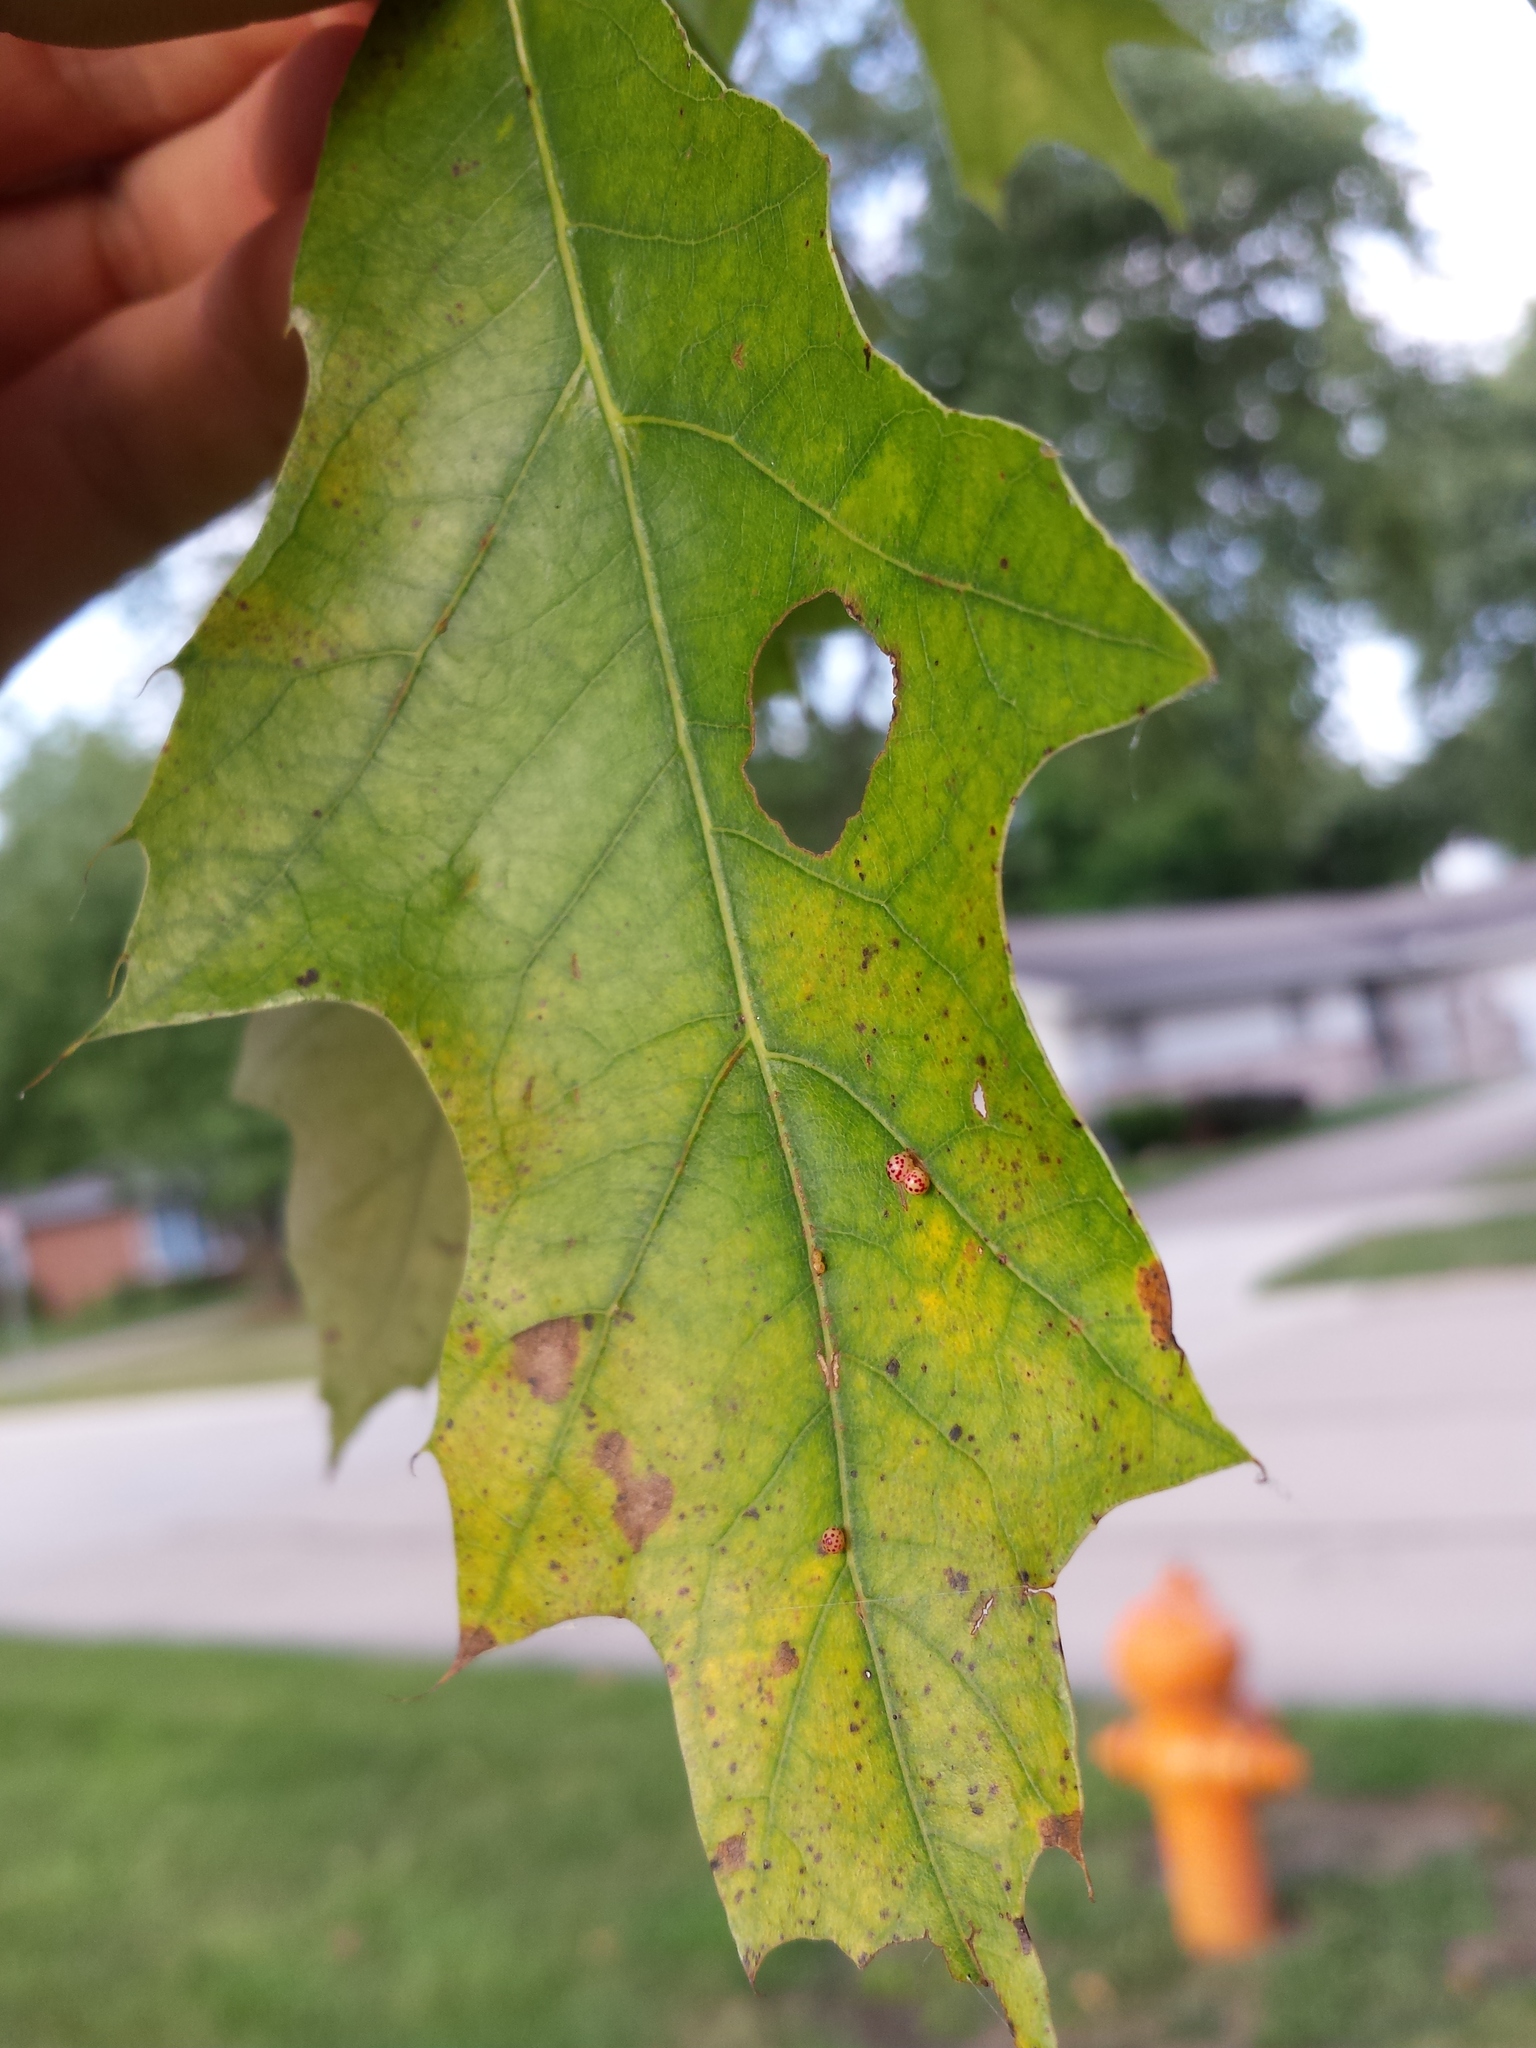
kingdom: Animalia
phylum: Arthropoda
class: Insecta
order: Hymenoptera
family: Cynipidae
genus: Zopheroteras
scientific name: Zopheroteras
